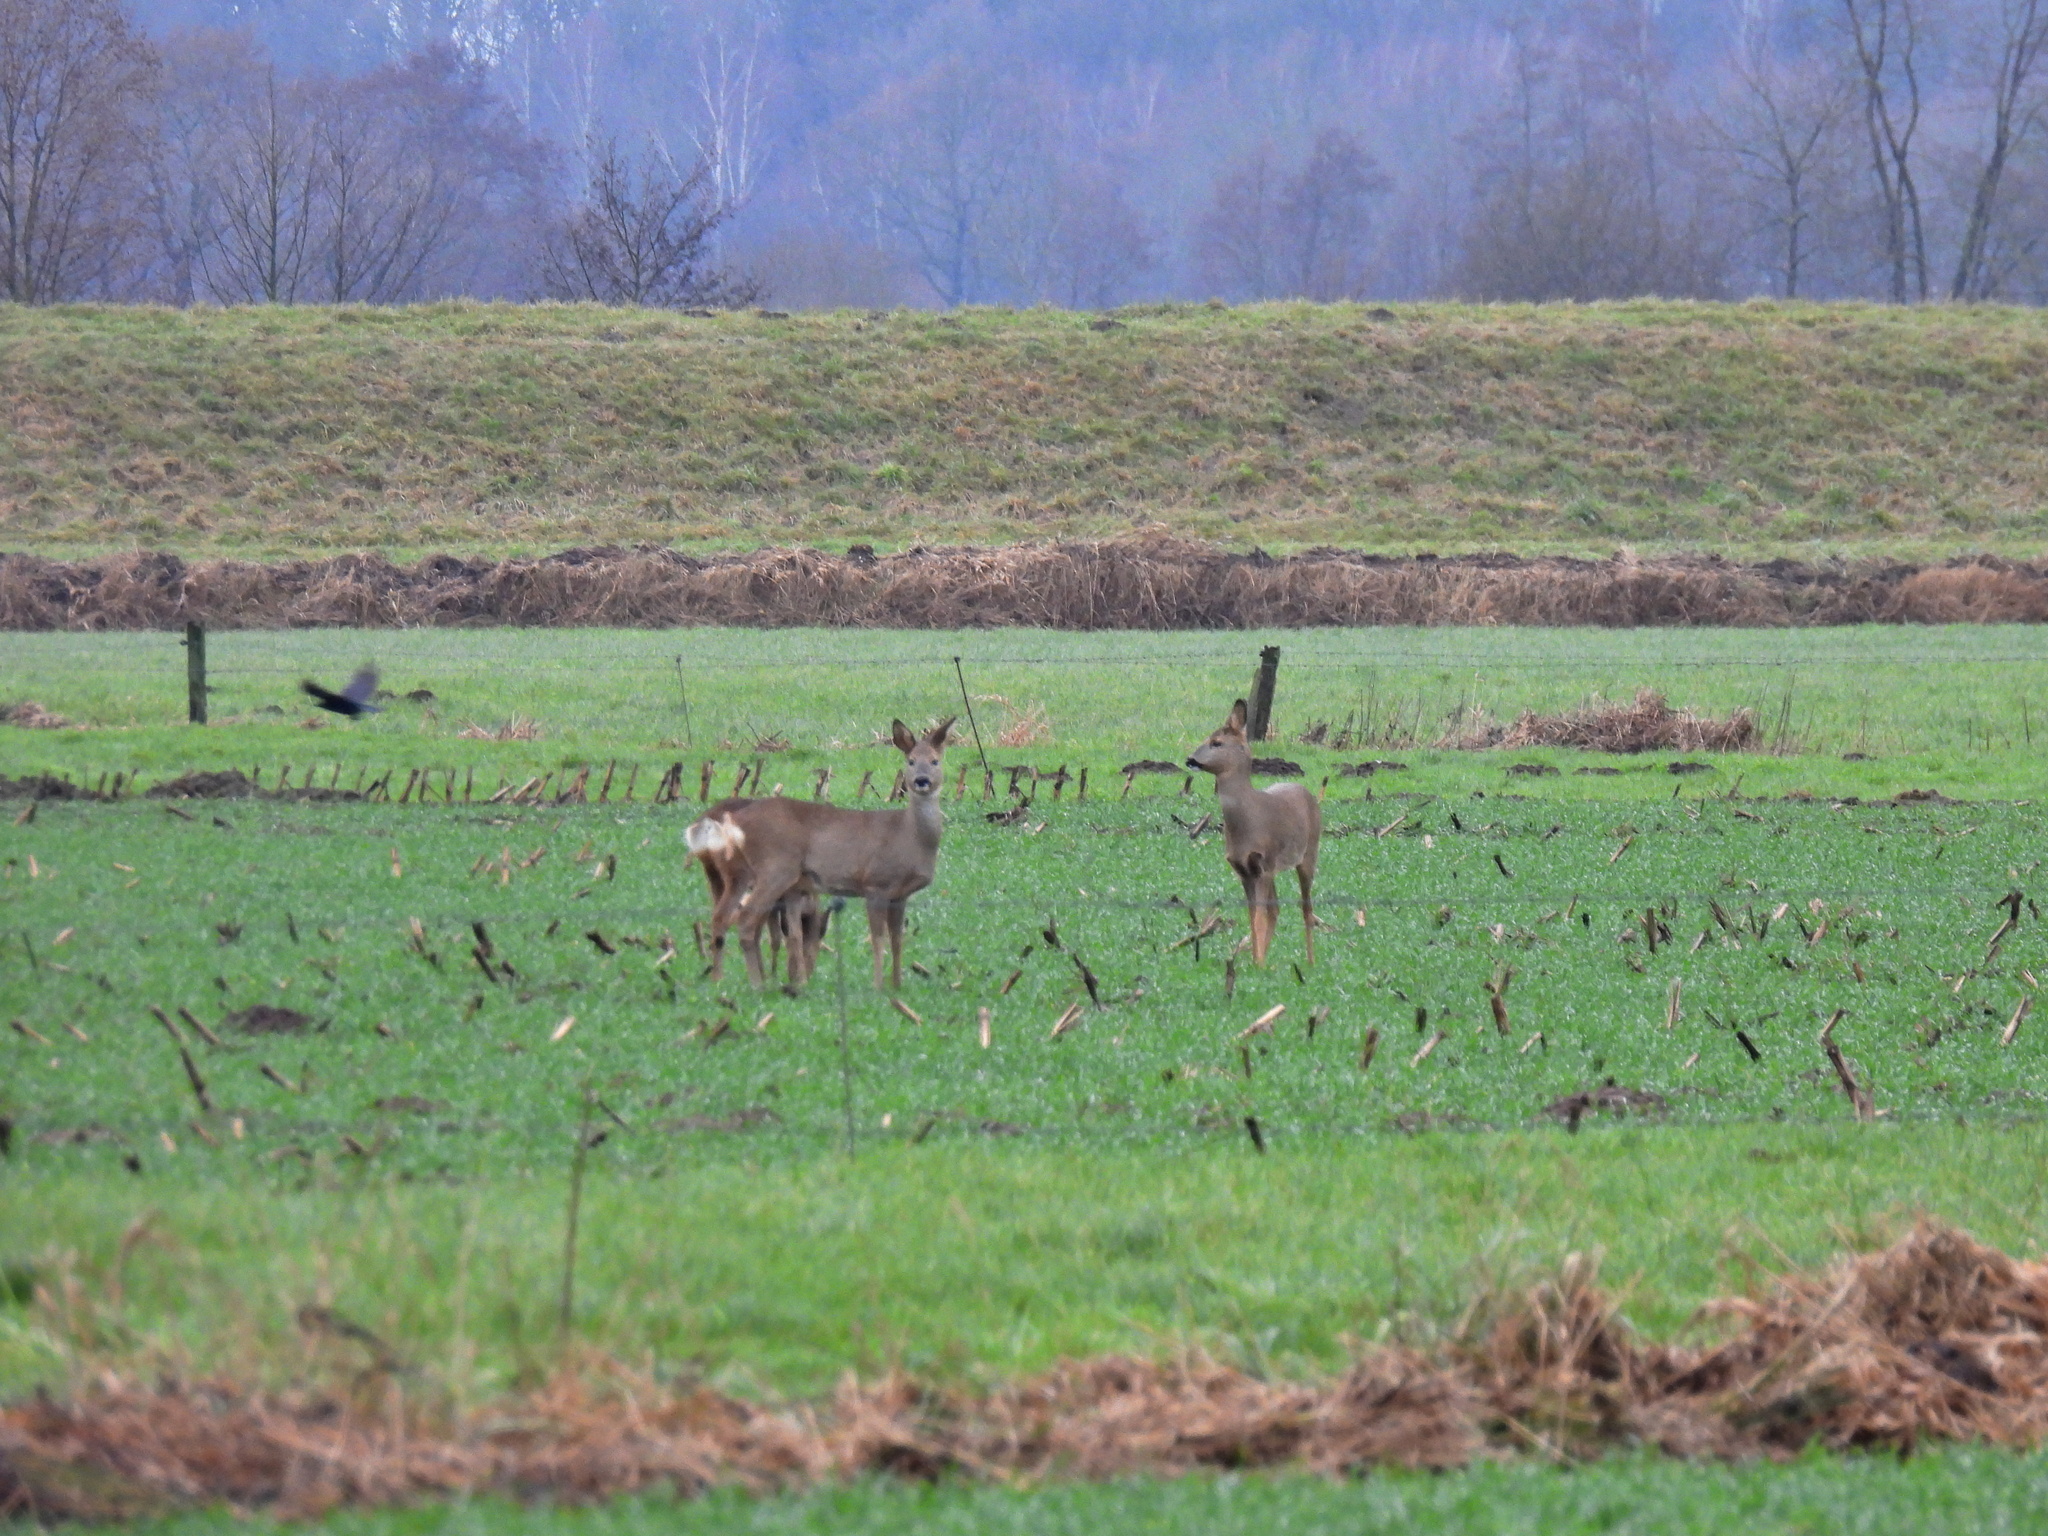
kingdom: Animalia
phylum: Chordata
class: Mammalia
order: Artiodactyla
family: Cervidae
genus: Capreolus
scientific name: Capreolus capreolus
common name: Western roe deer
